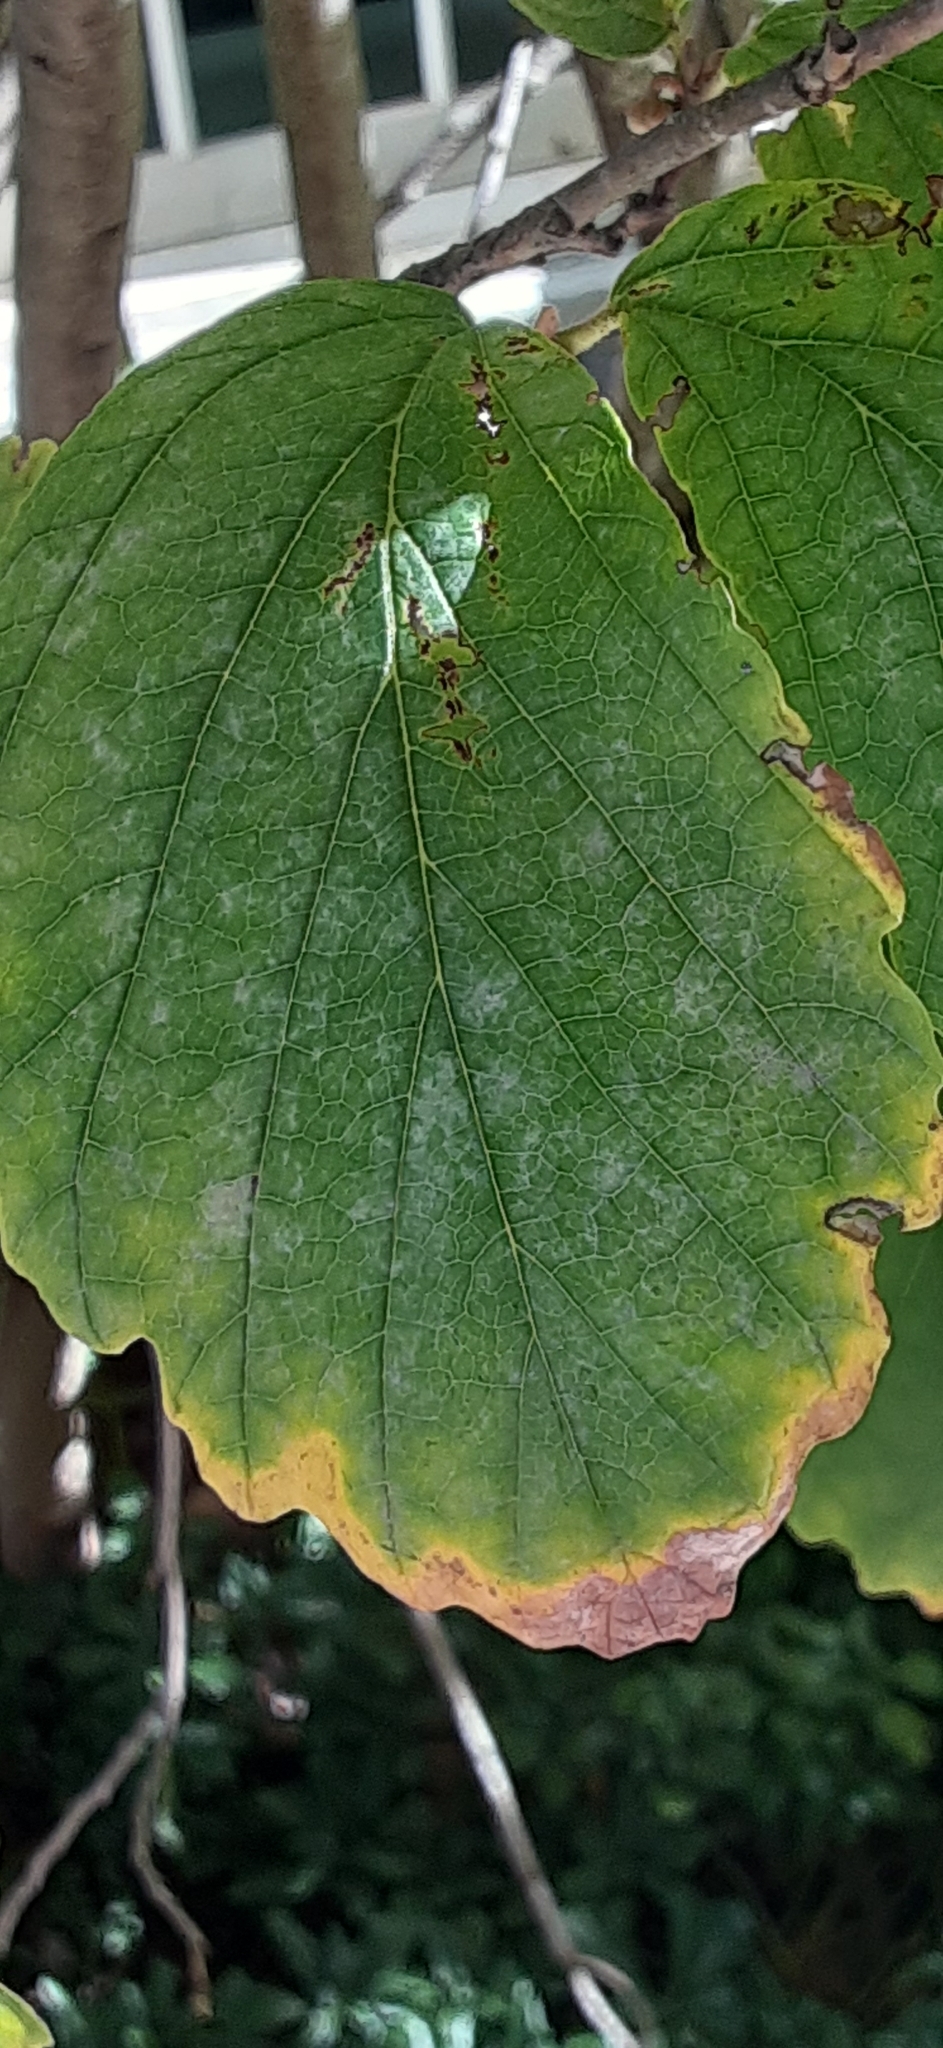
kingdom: Animalia
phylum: Arthropoda
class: Insecta
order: Hemiptera
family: Aphididae
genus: Hormaphis
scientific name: Hormaphis hamamelidis
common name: Witch-hazel cone gall aphid
